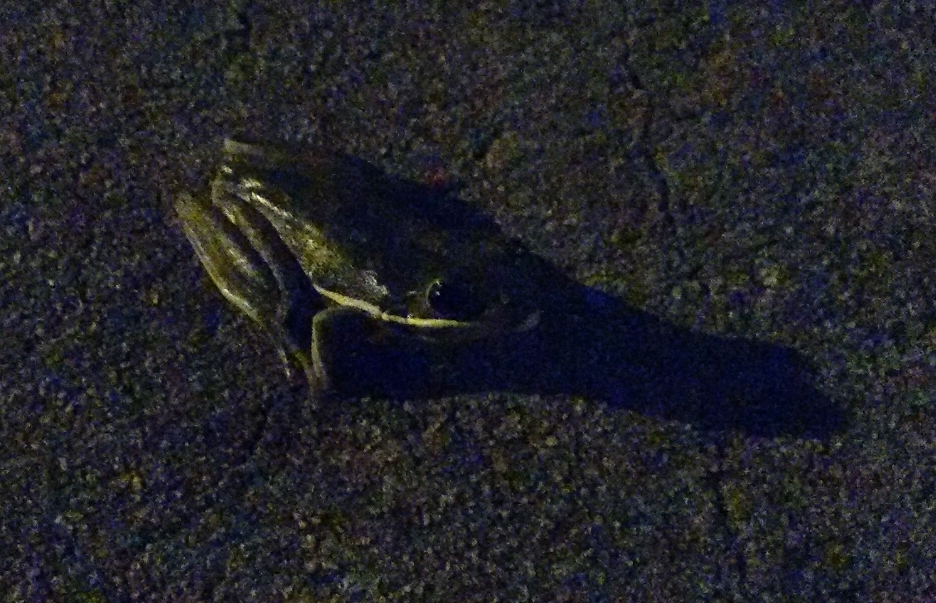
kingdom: Animalia
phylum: Chordata
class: Amphibia
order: Anura
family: Hylidae
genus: Dryophytes
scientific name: Dryophytes cinereus
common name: Green treefrog
